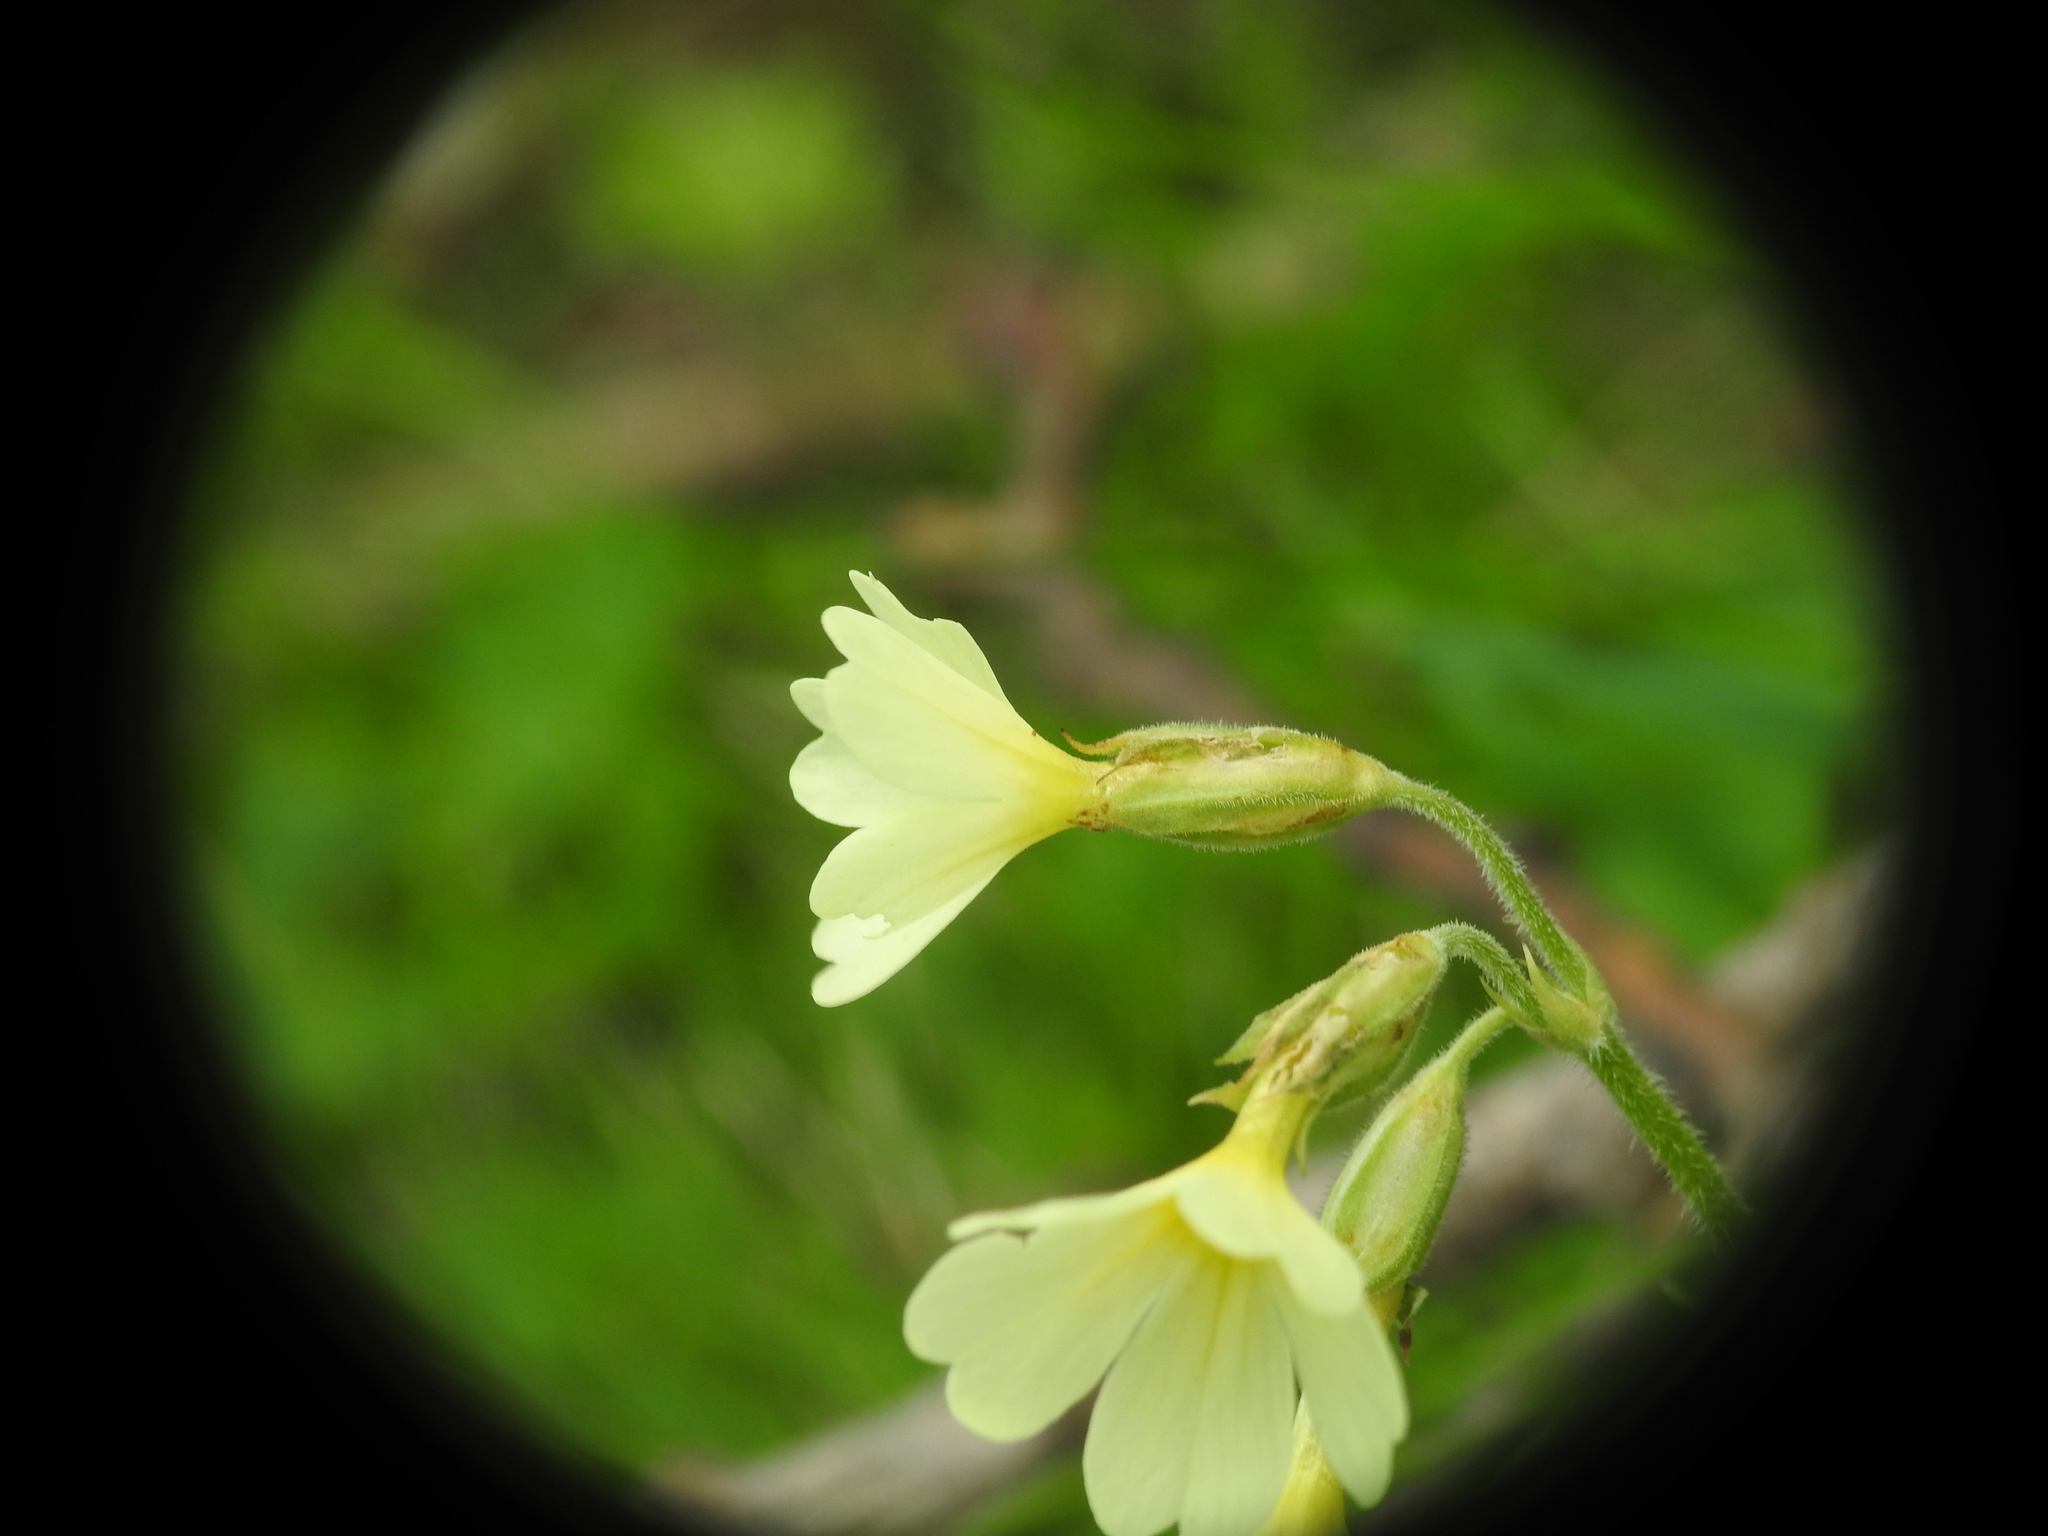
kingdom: Plantae
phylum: Tracheophyta
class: Magnoliopsida
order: Ericales
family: Primulaceae
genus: Primula
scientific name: Primula elatior
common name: Oxlip
